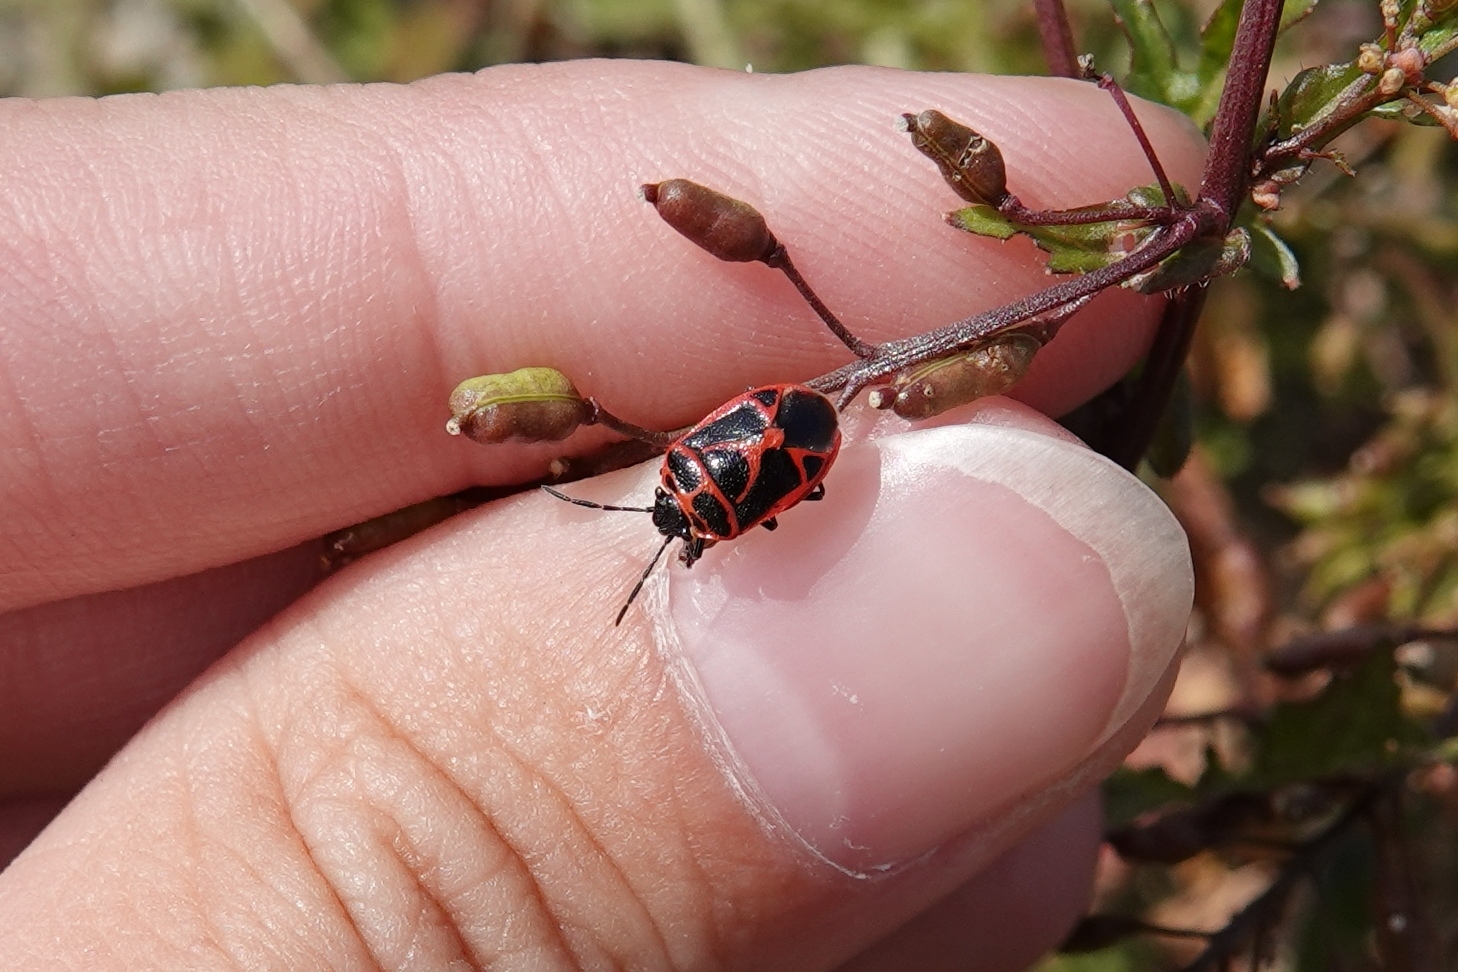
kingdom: Animalia
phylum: Arthropoda
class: Insecta
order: Hemiptera
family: Pentatomidae
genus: Eurydema
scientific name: Eurydema dominulus
